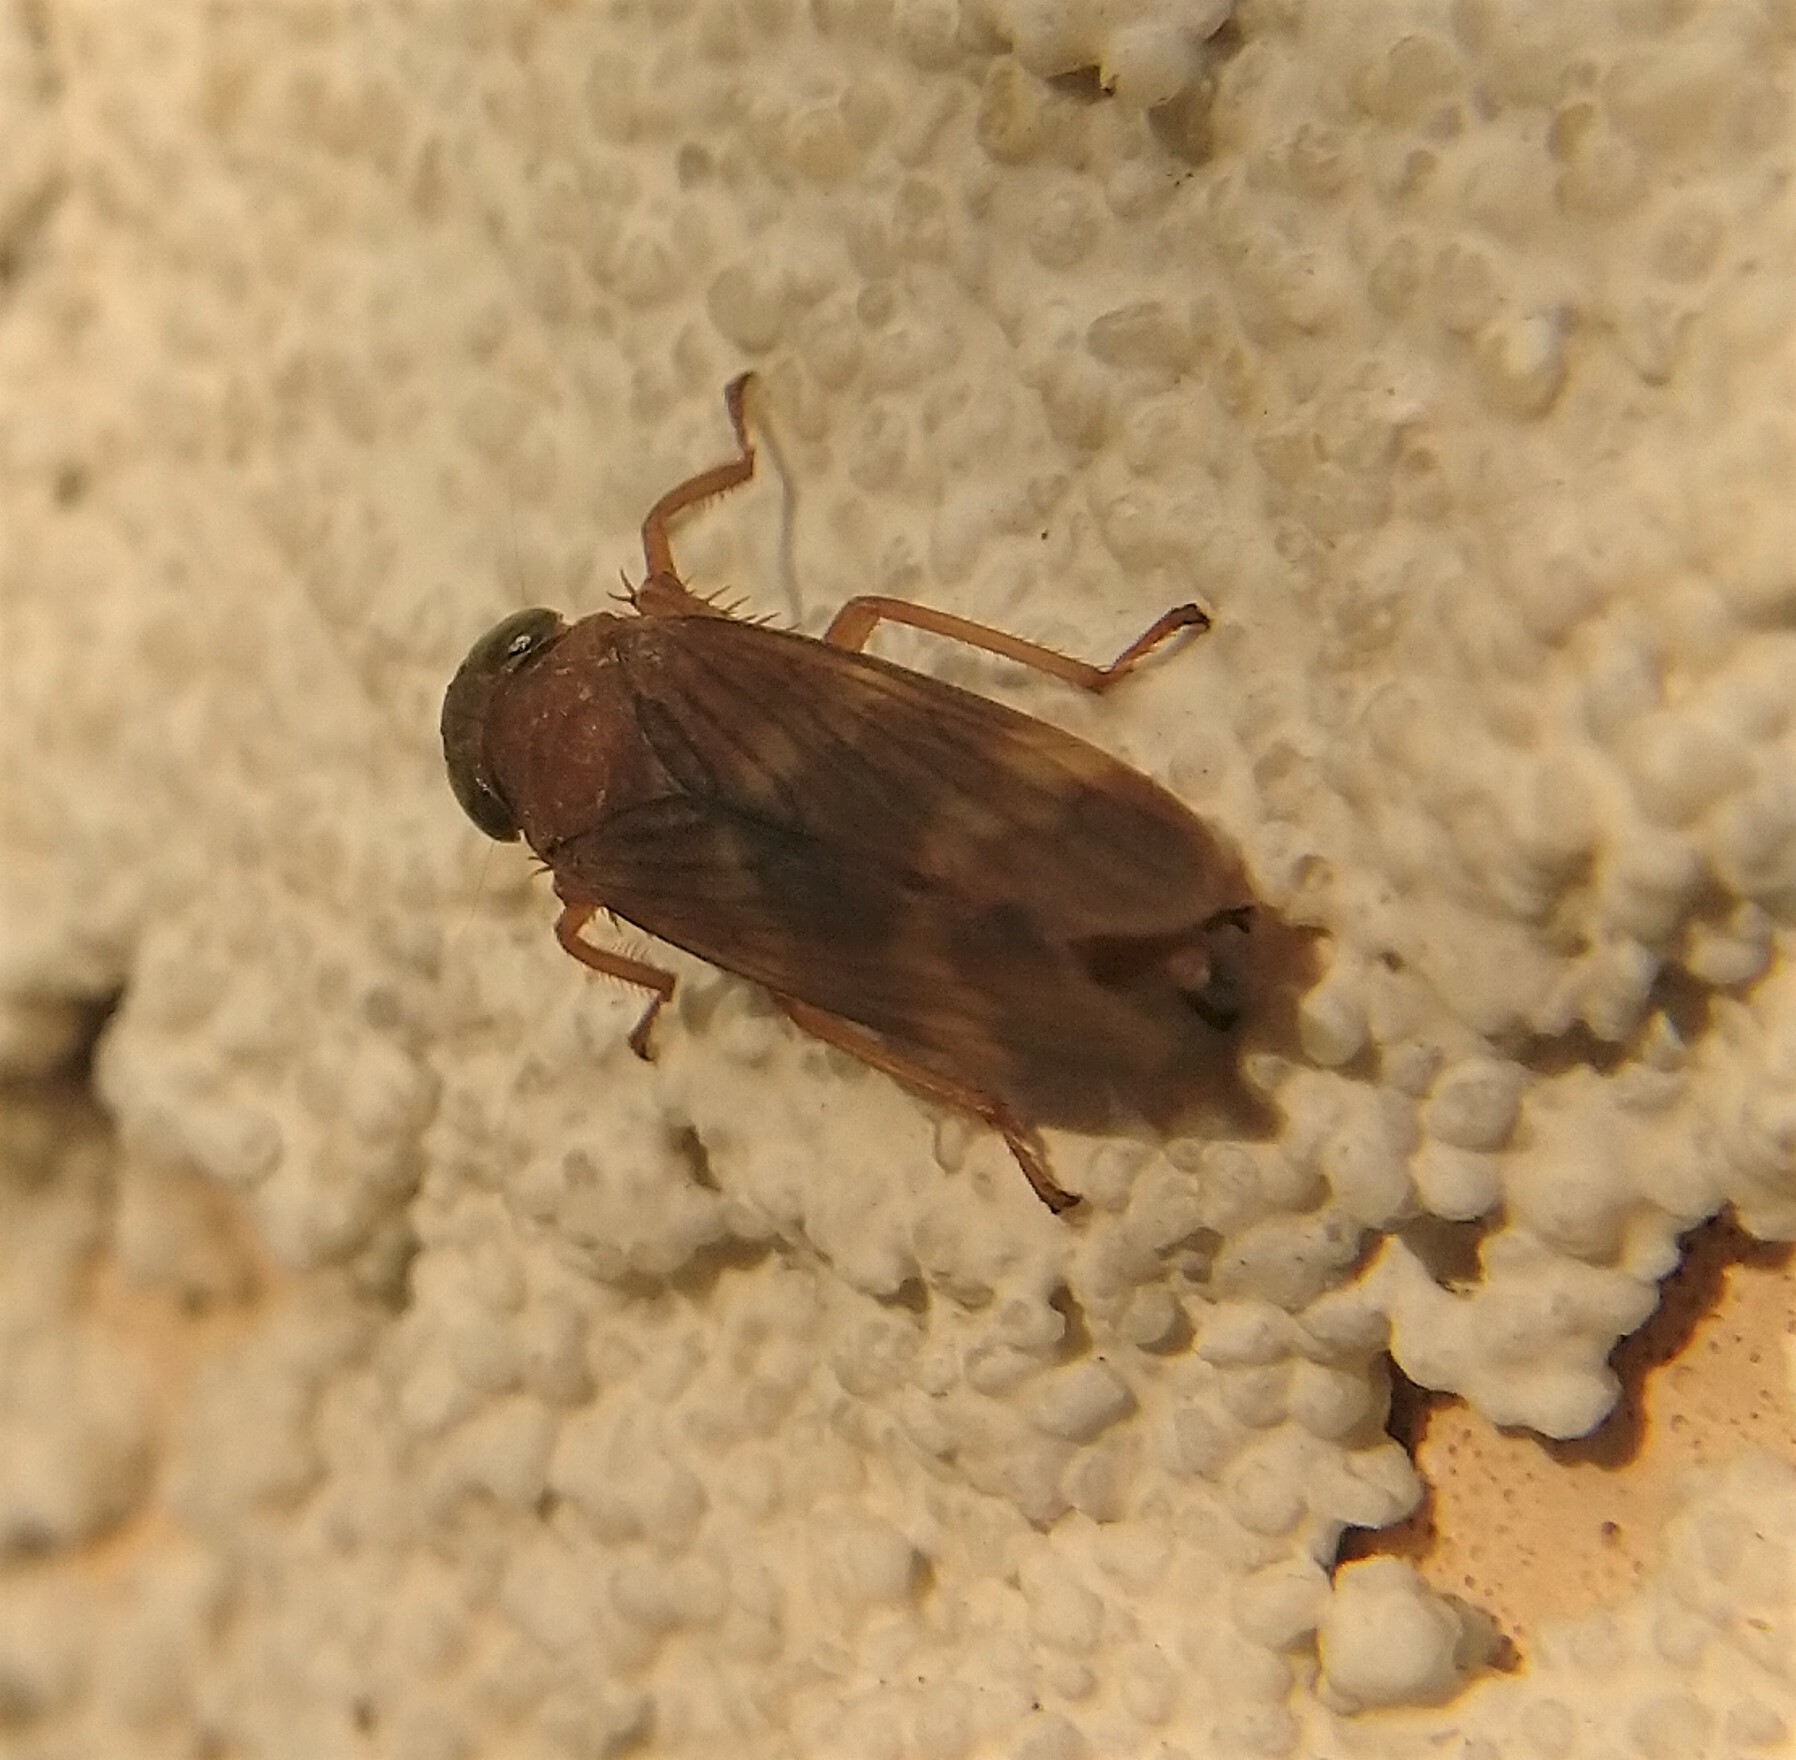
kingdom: Animalia
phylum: Arthropoda
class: Insecta
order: Hemiptera
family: Cicadellidae
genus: Jikradia
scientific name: Jikradia olitoria
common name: Coppery leafhopper
